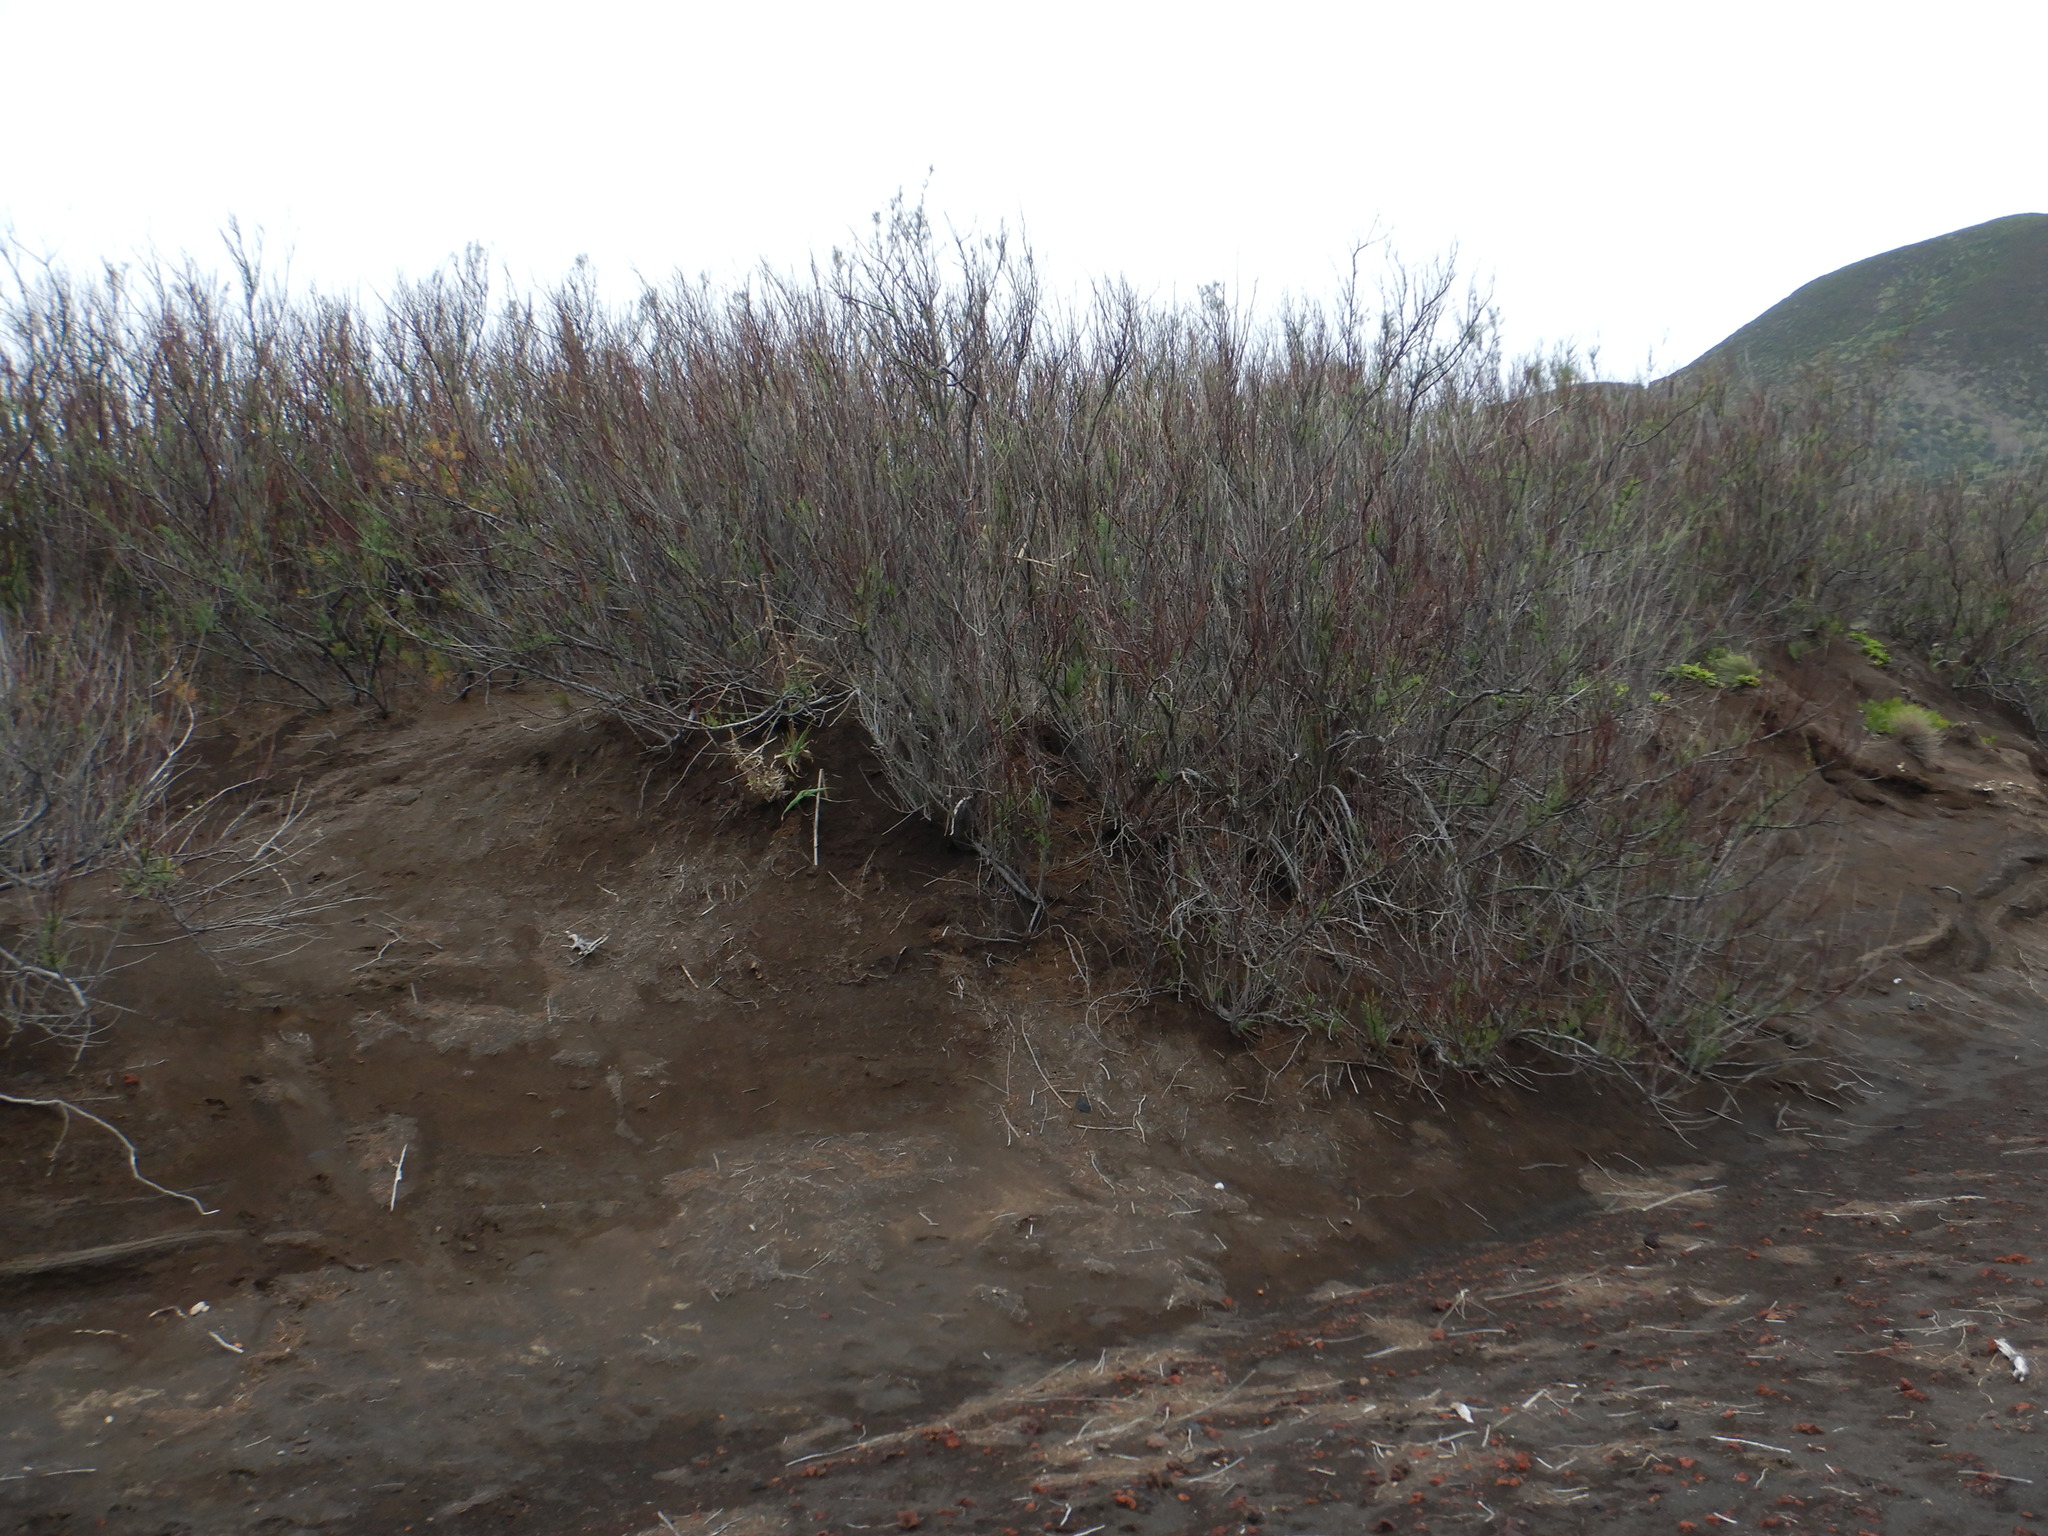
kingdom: Plantae
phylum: Tracheophyta
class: Magnoliopsida
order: Caryophyllales
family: Tamaricaceae
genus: Tamarix
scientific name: Tamarix africana
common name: African tamarisk
